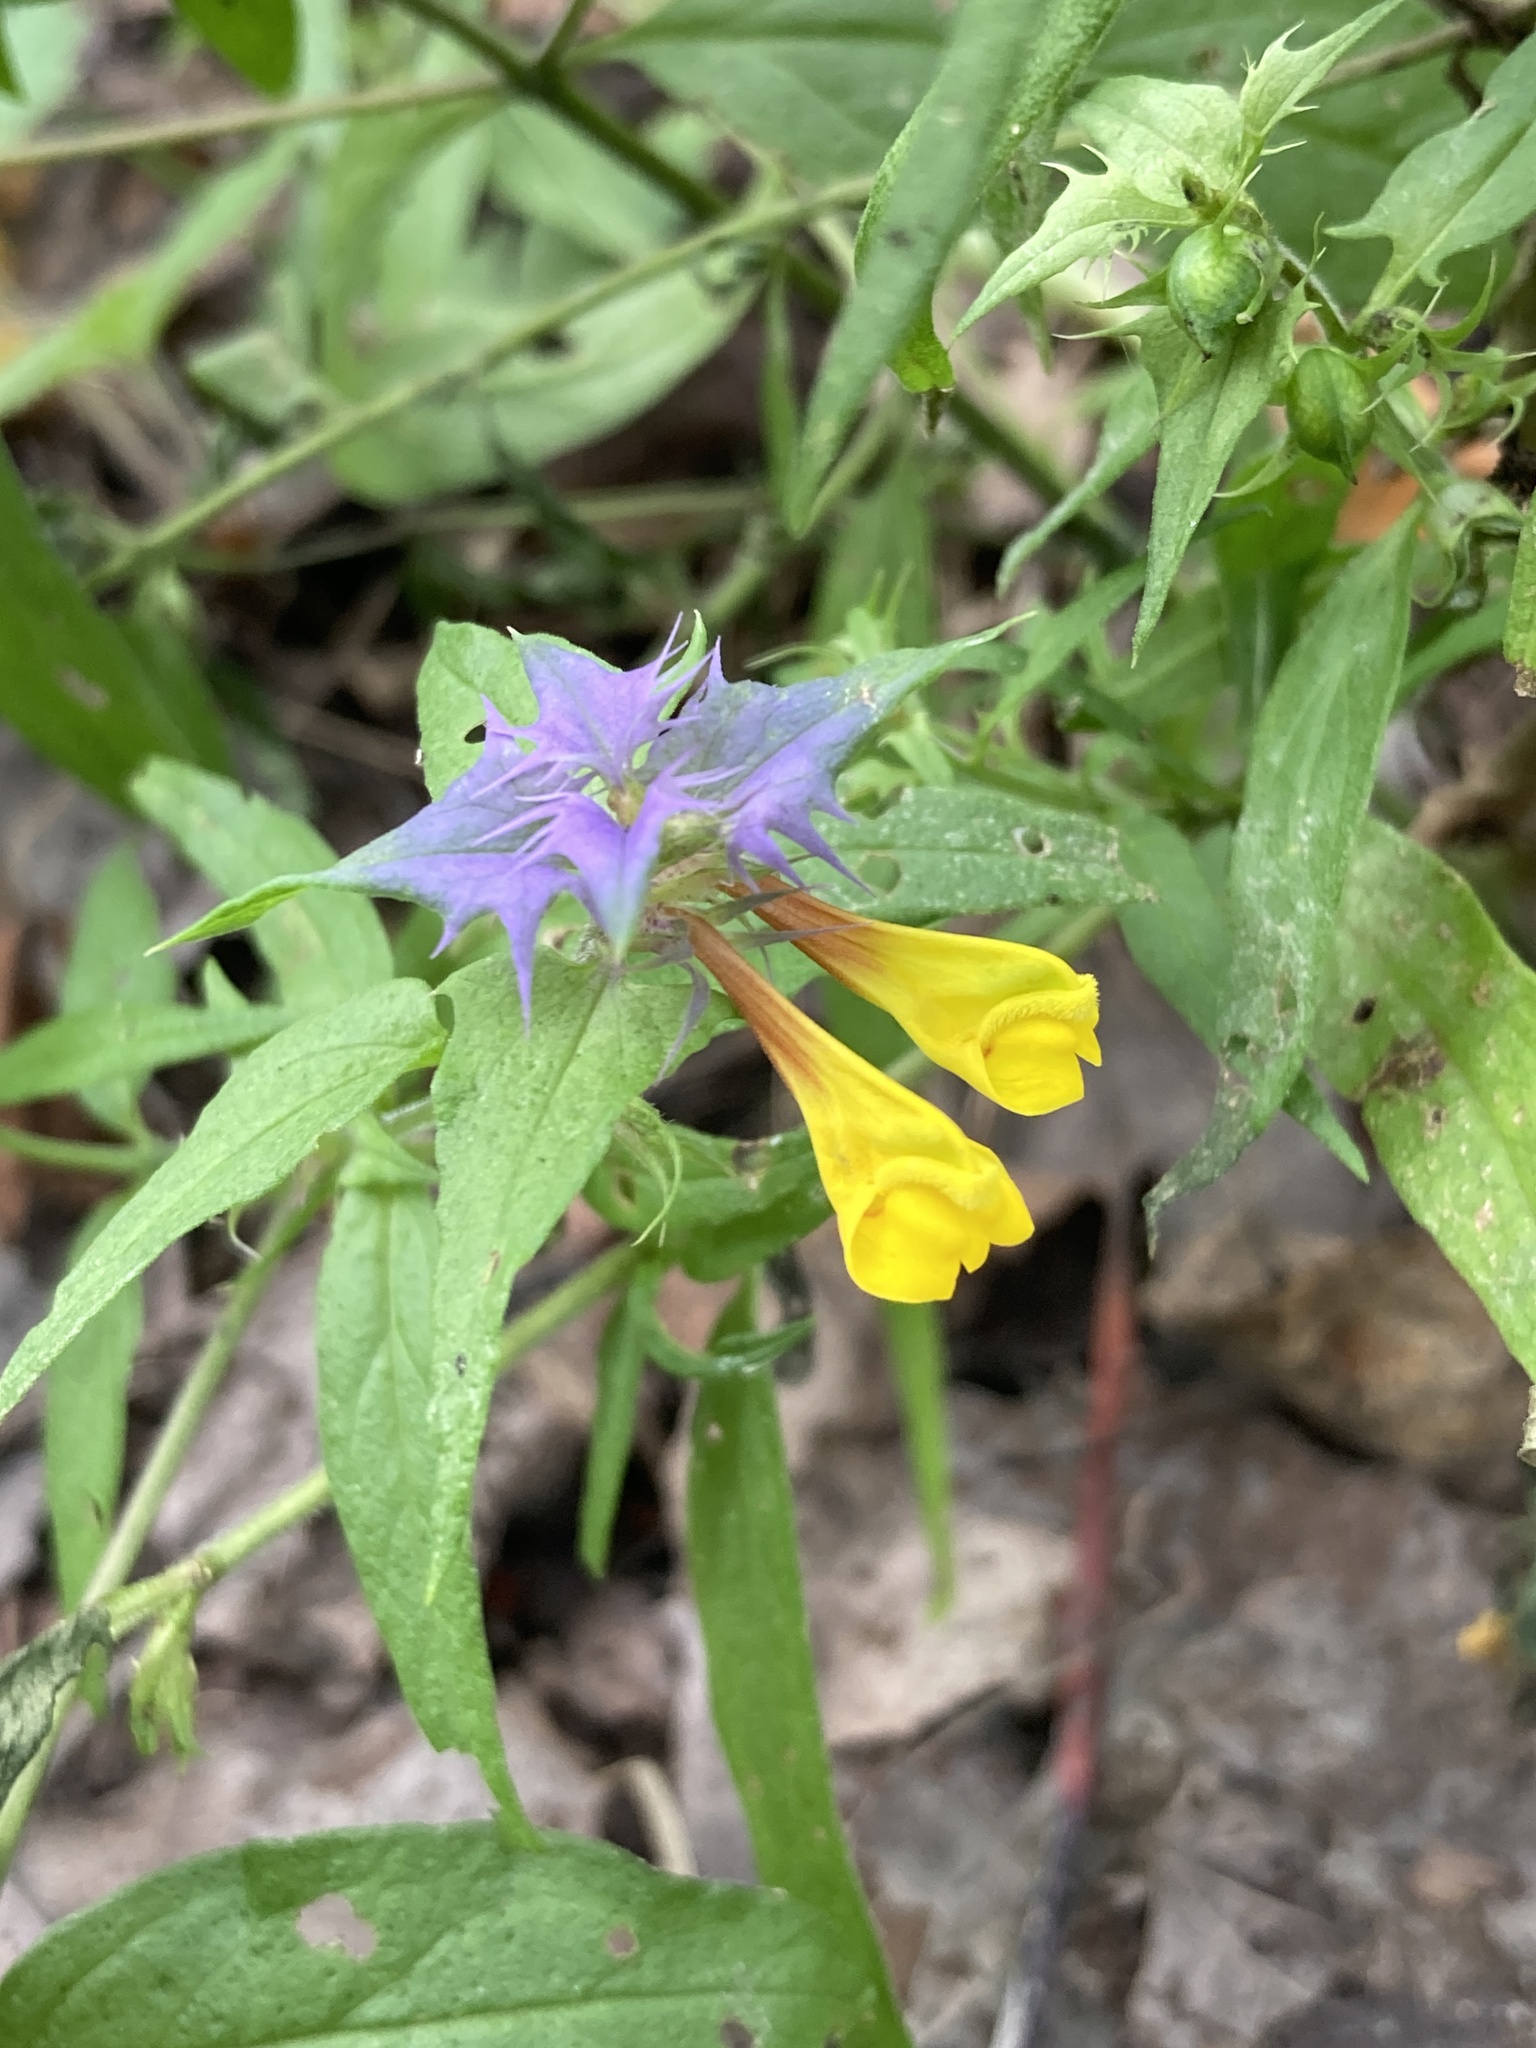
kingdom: Plantae
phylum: Tracheophyta
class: Magnoliopsida
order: Lamiales
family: Orobanchaceae
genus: Melampyrum
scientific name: Melampyrum nemorosum
